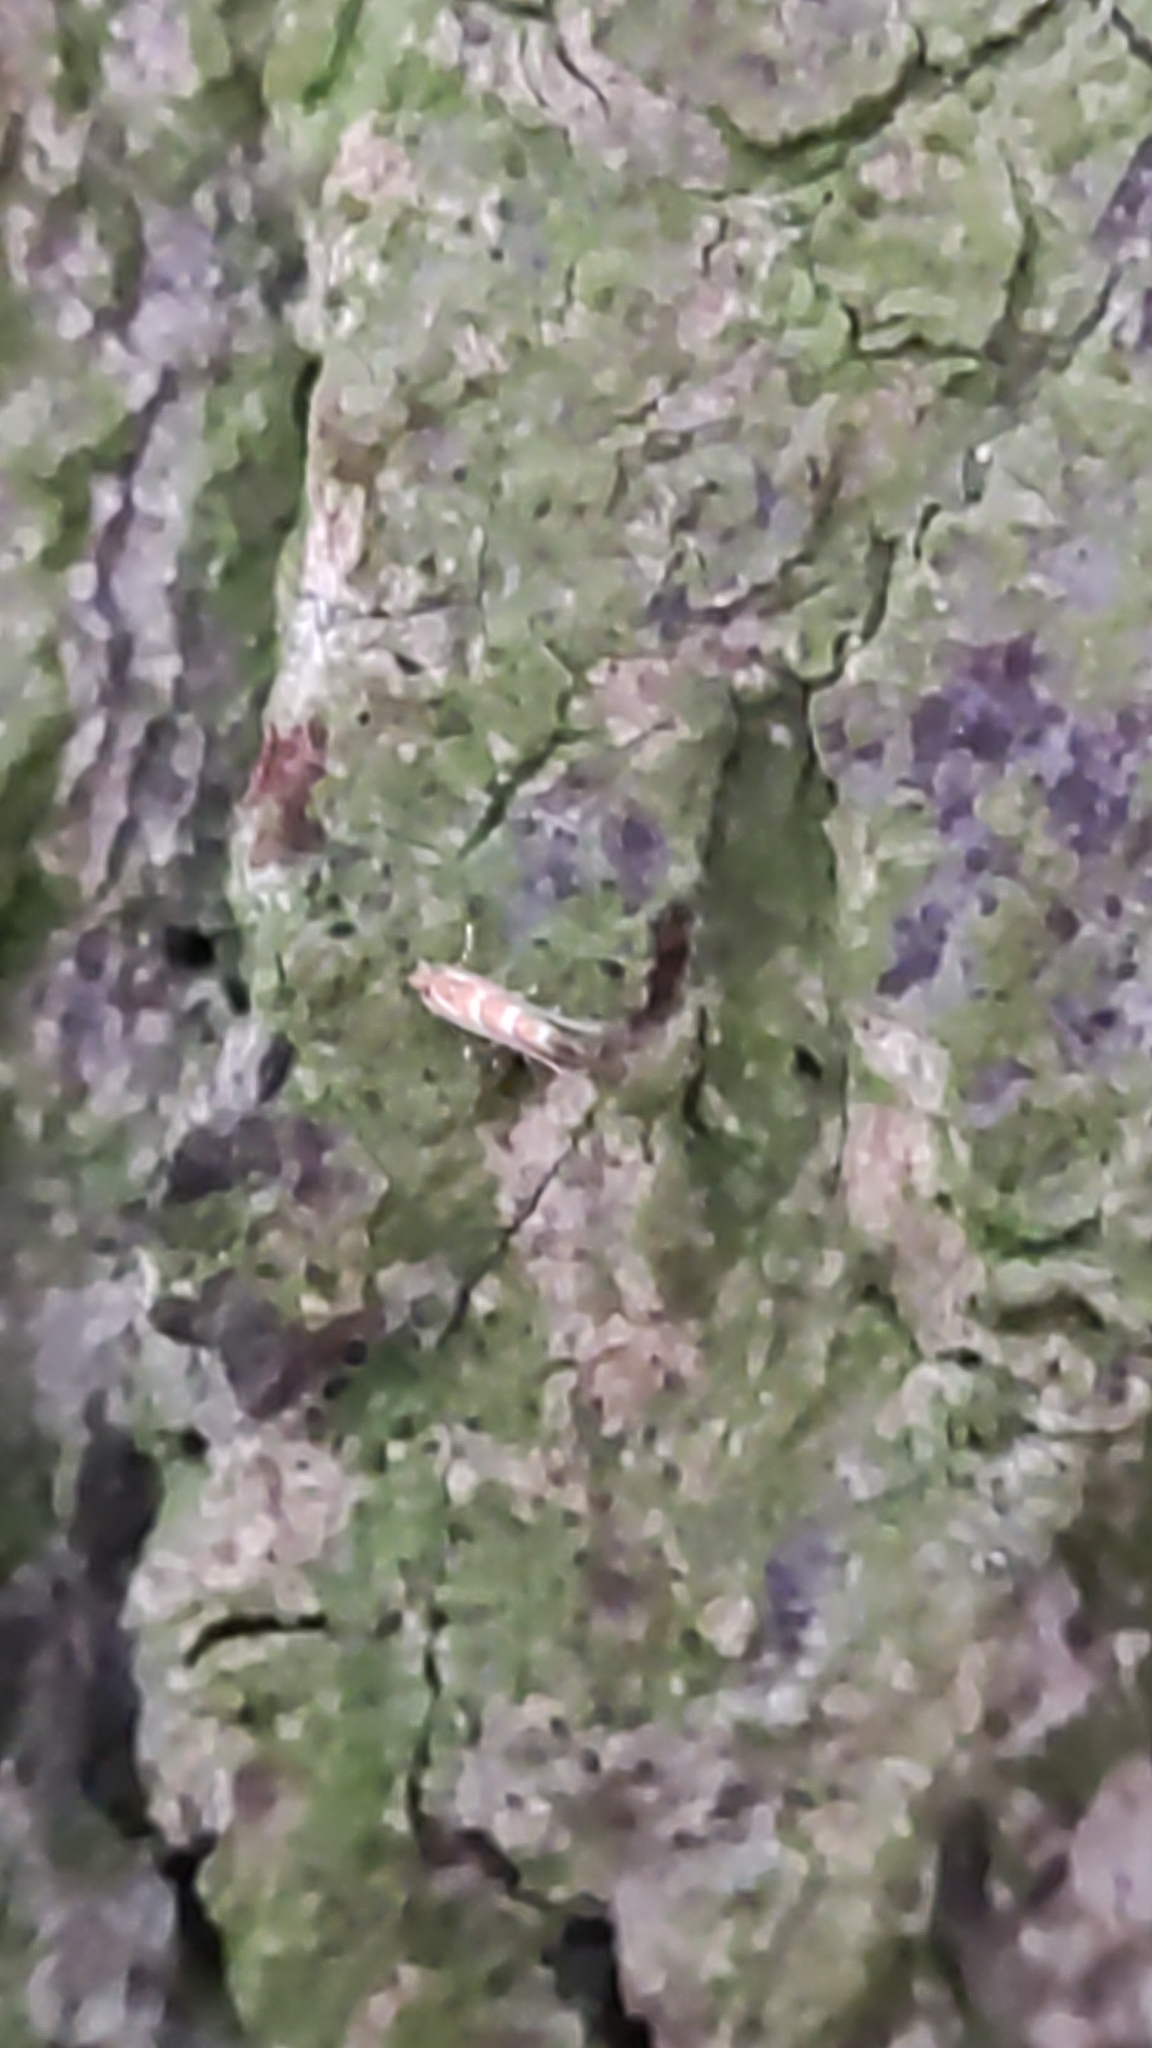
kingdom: Animalia
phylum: Arthropoda
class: Insecta
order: Lepidoptera
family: Gracillariidae
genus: Cameraria
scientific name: Cameraria ohridella
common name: Horse-chestnut leaf-miner
